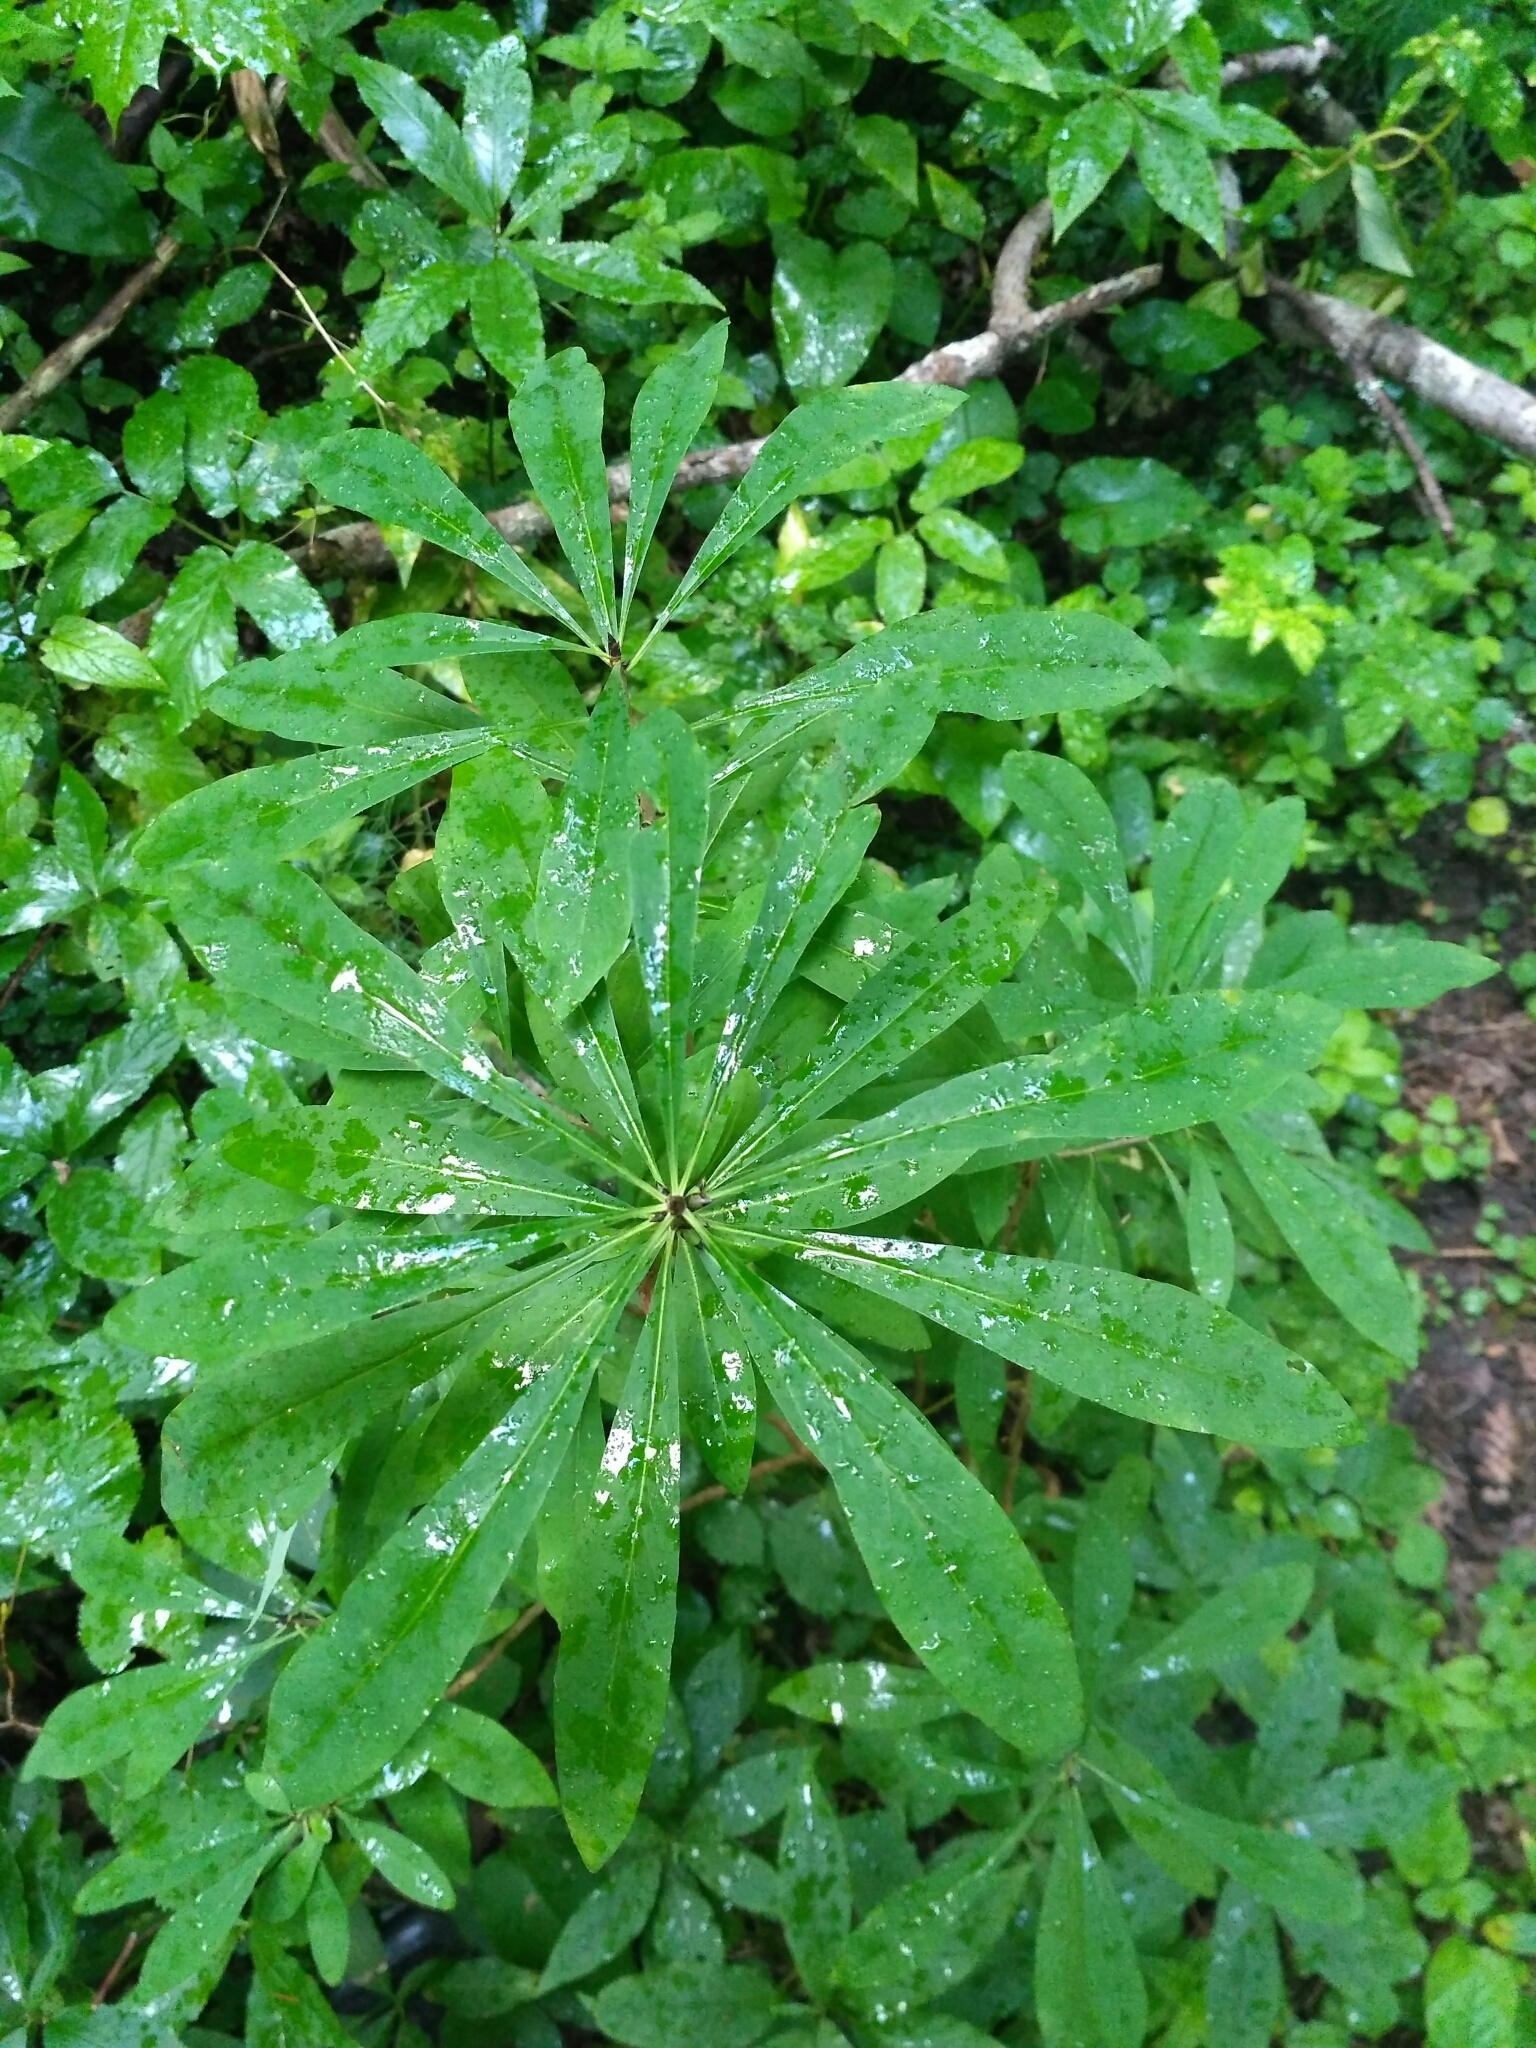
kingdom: Plantae
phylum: Tracheophyta
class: Magnoliopsida
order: Malvales
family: Thymelaeaceae
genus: Daphne
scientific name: Daphne mezereum
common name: Mezereon
